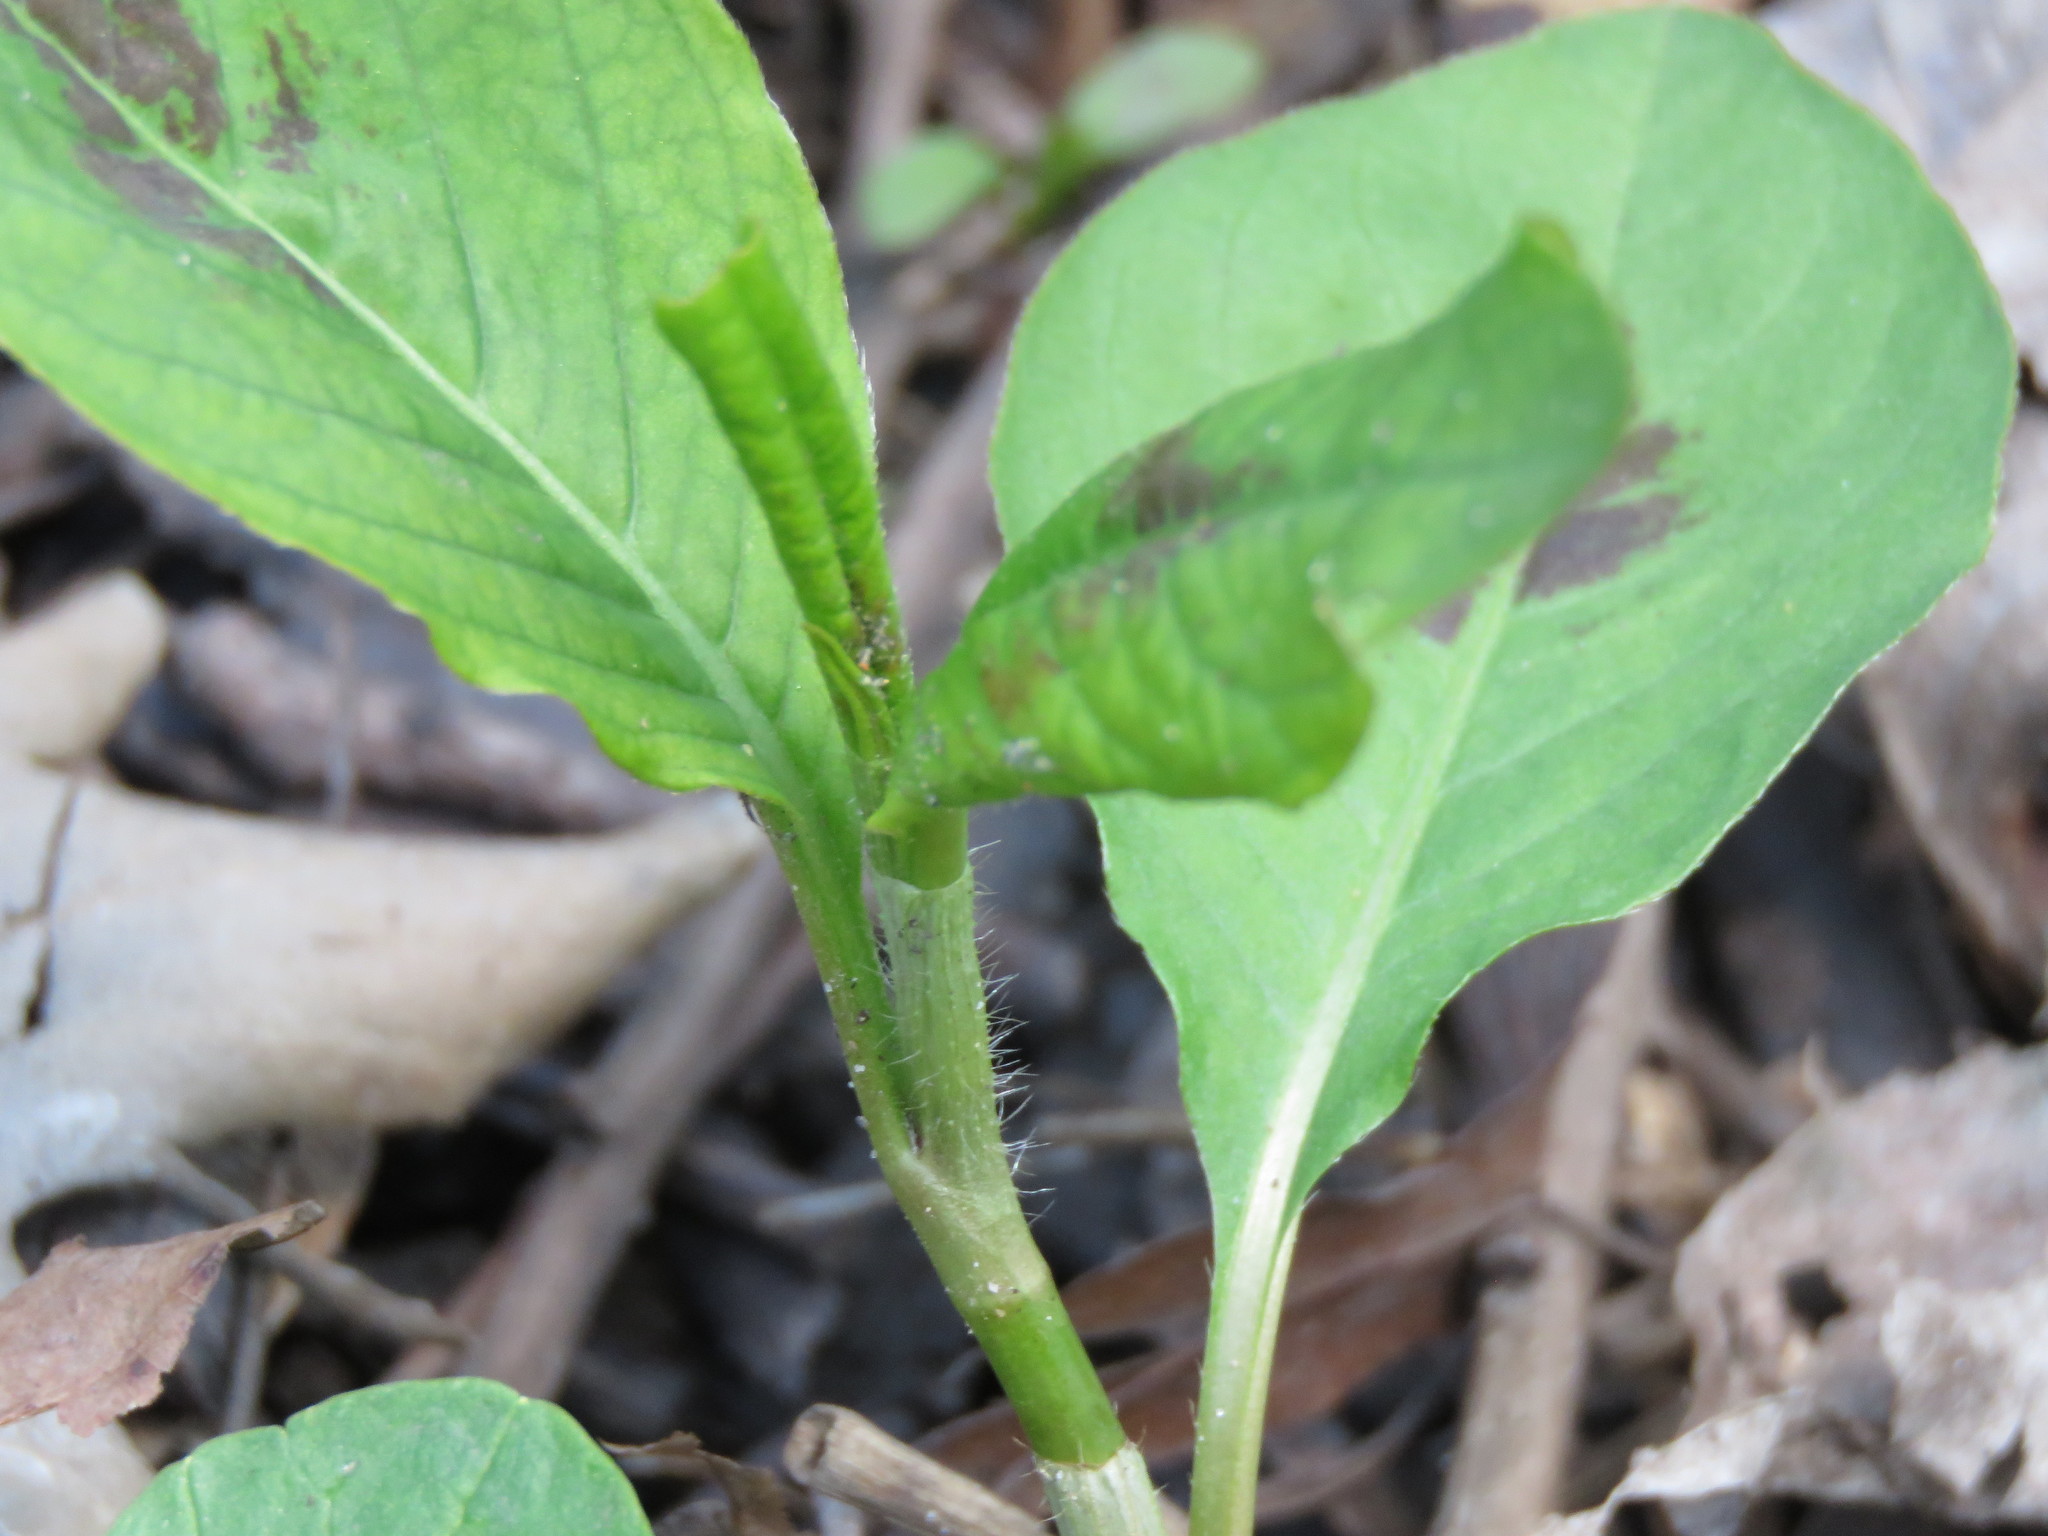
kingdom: Plantae
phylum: Tracheophyta
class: Magnoliopsida
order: Caryophyllales
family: Polygonaceae
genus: Persicaria
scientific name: Persicaria virginiana
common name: Jumpseed
